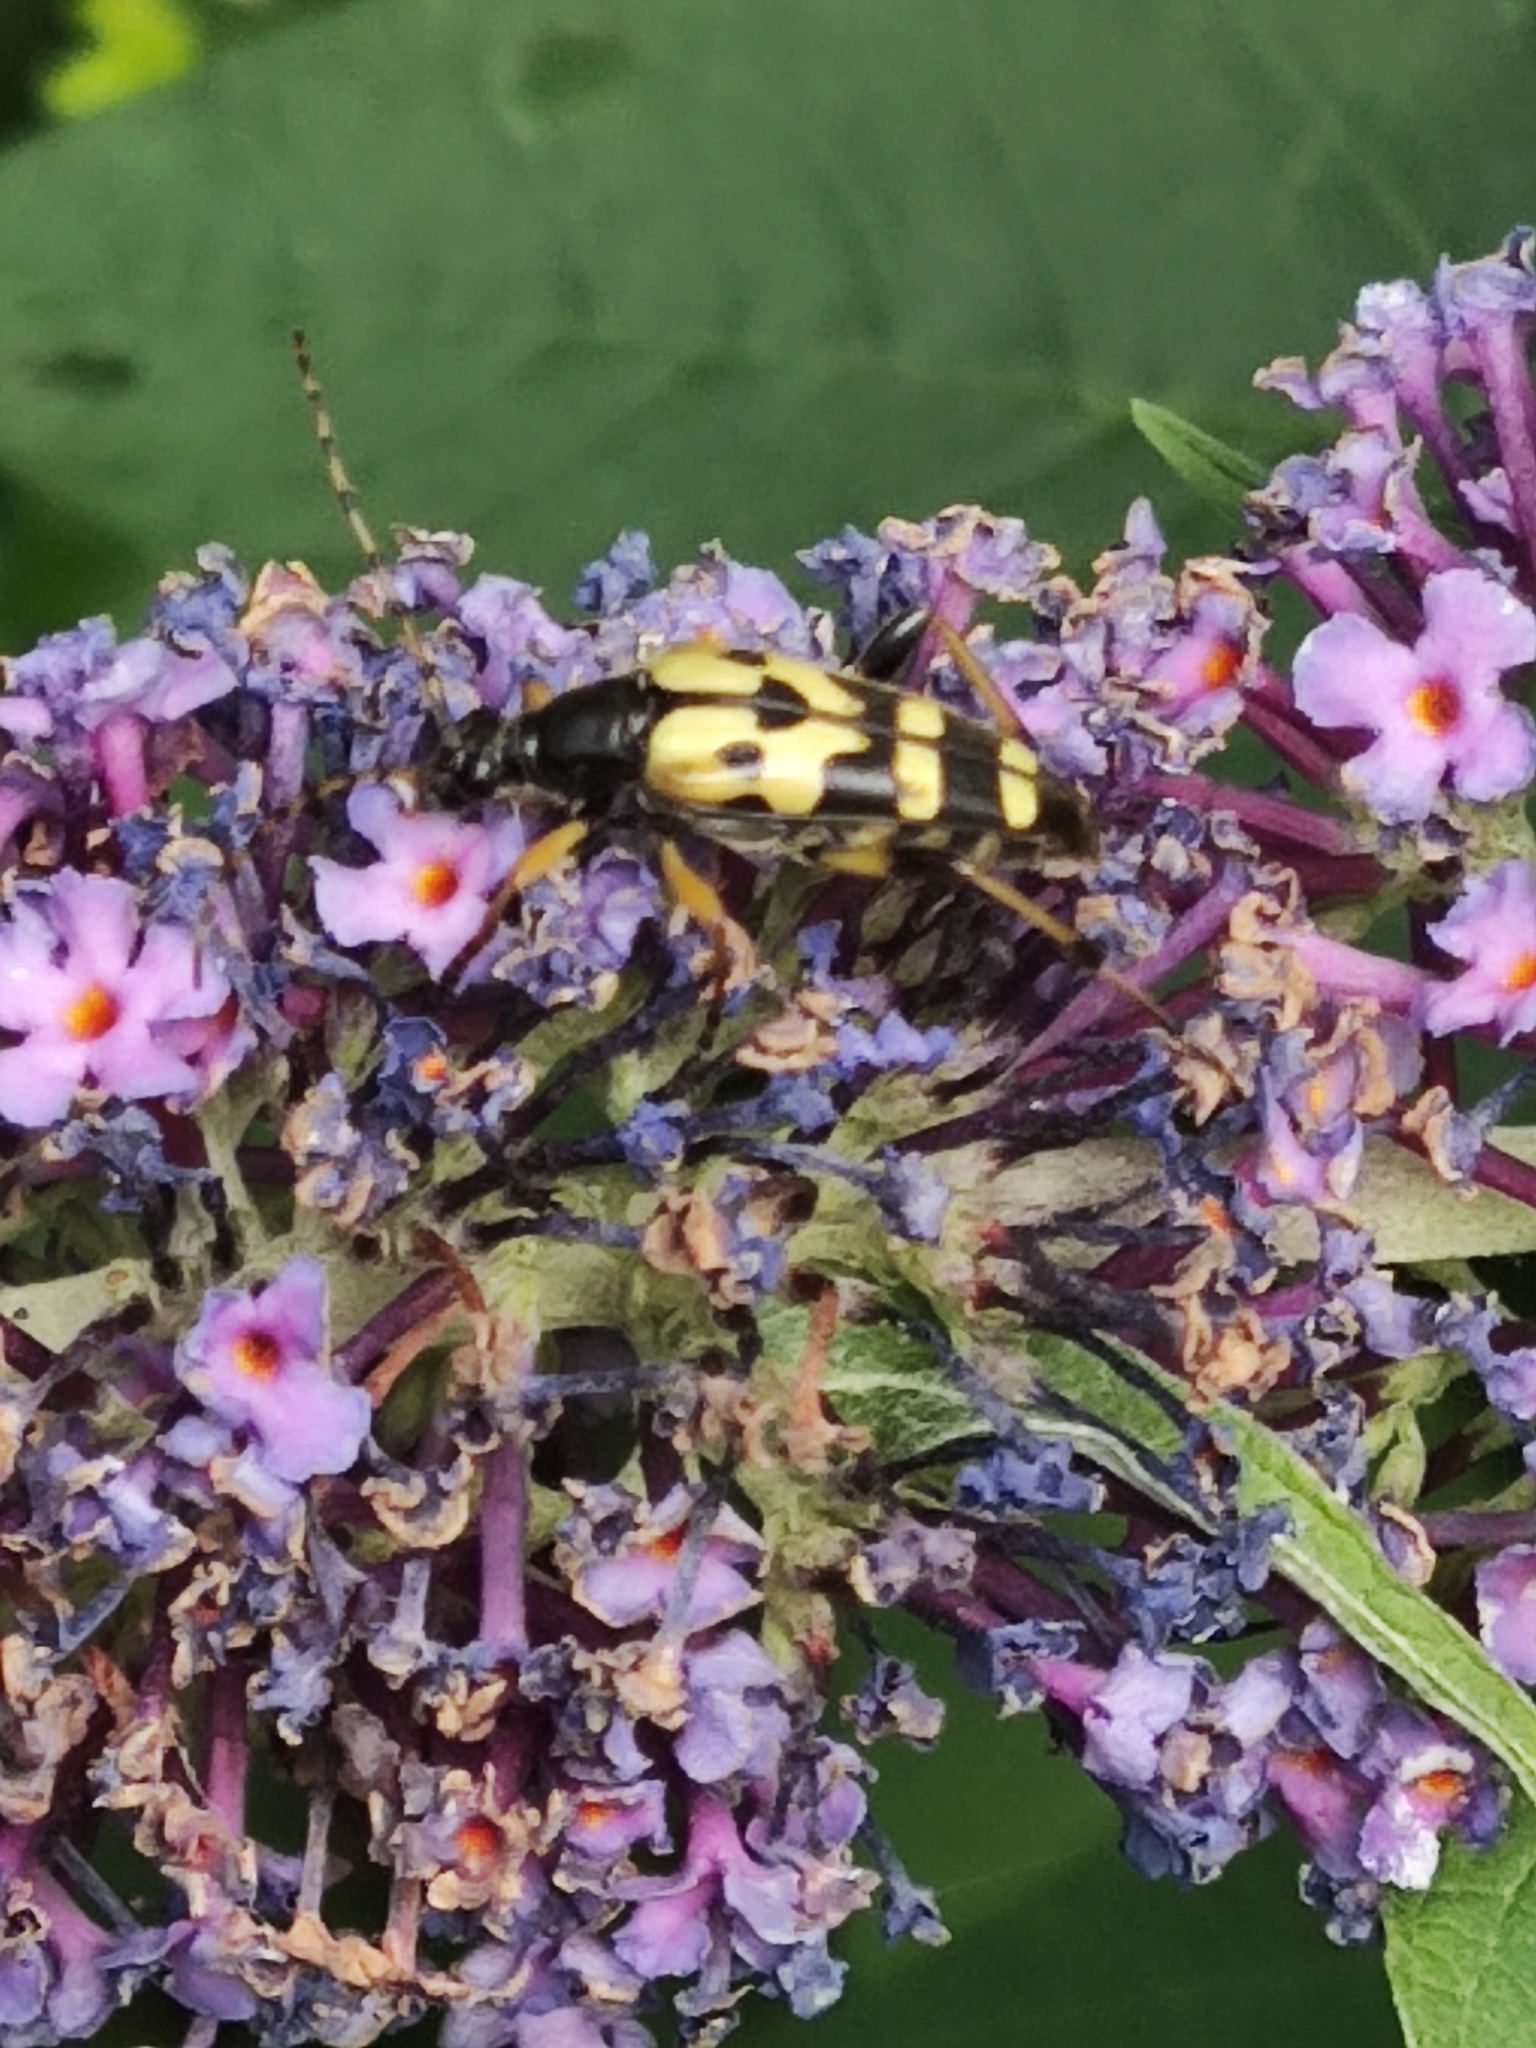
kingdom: Animalia
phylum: Arthropoda
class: Insecta
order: Coleoptera
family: Cerambycidae
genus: Rutpela
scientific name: Rutpela maculata
